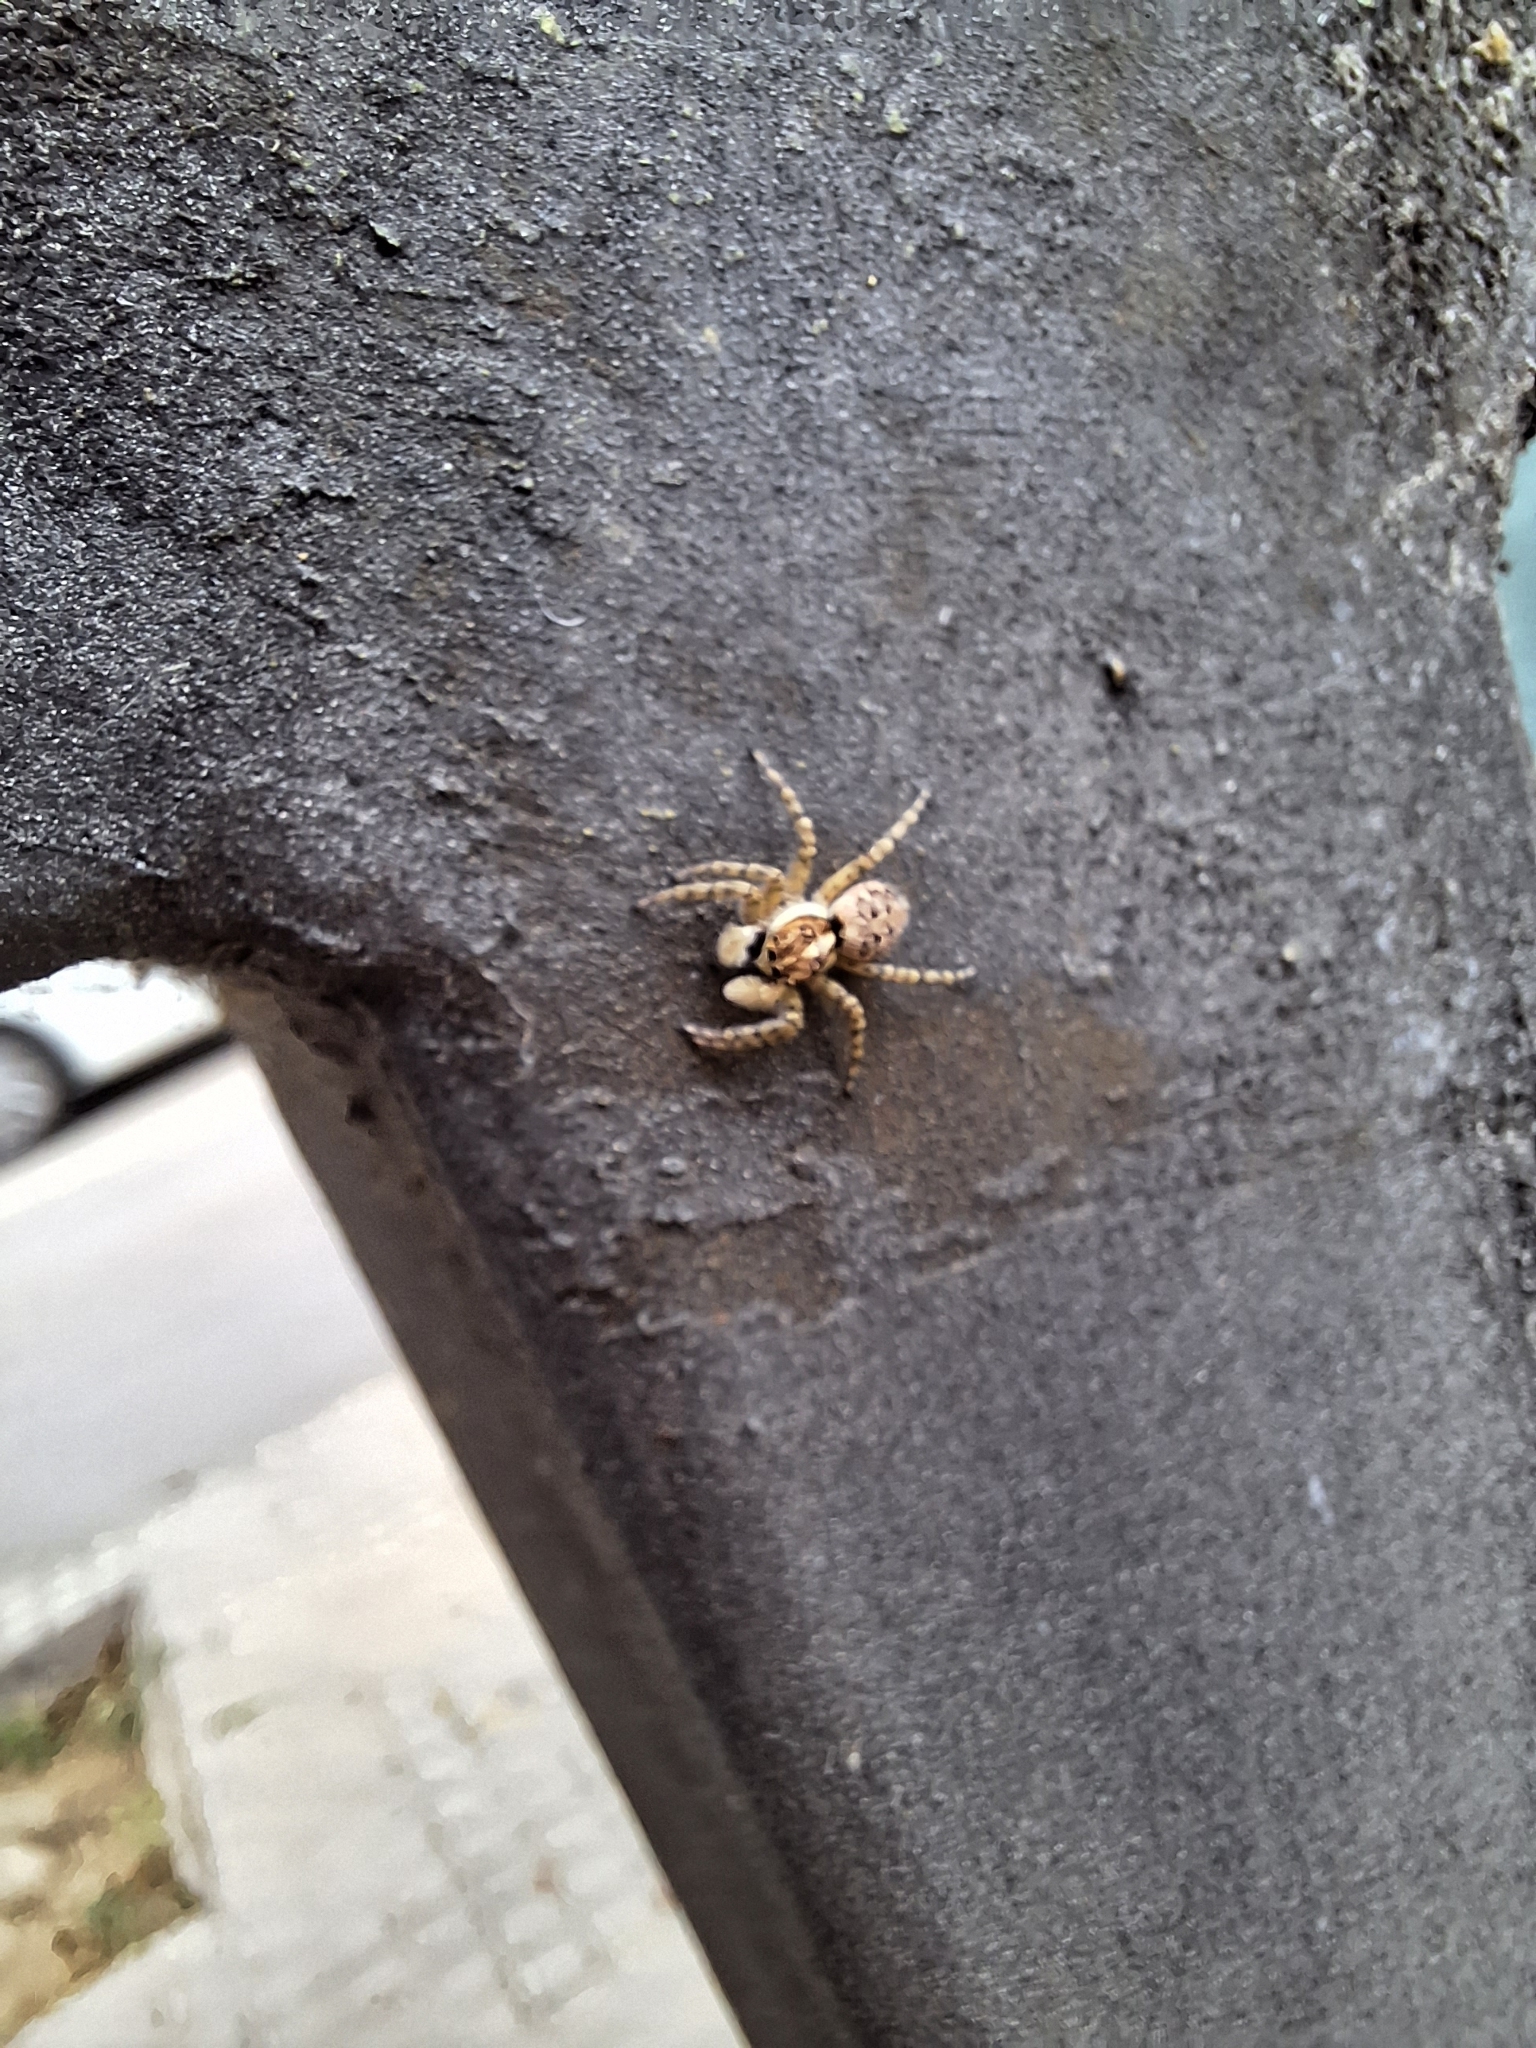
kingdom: Animalia
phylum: Arthropoda
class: Arachnida
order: Araneae
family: Salticidae
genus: Menemerus
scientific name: Menemerus semilimbatus
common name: Jumping spider
